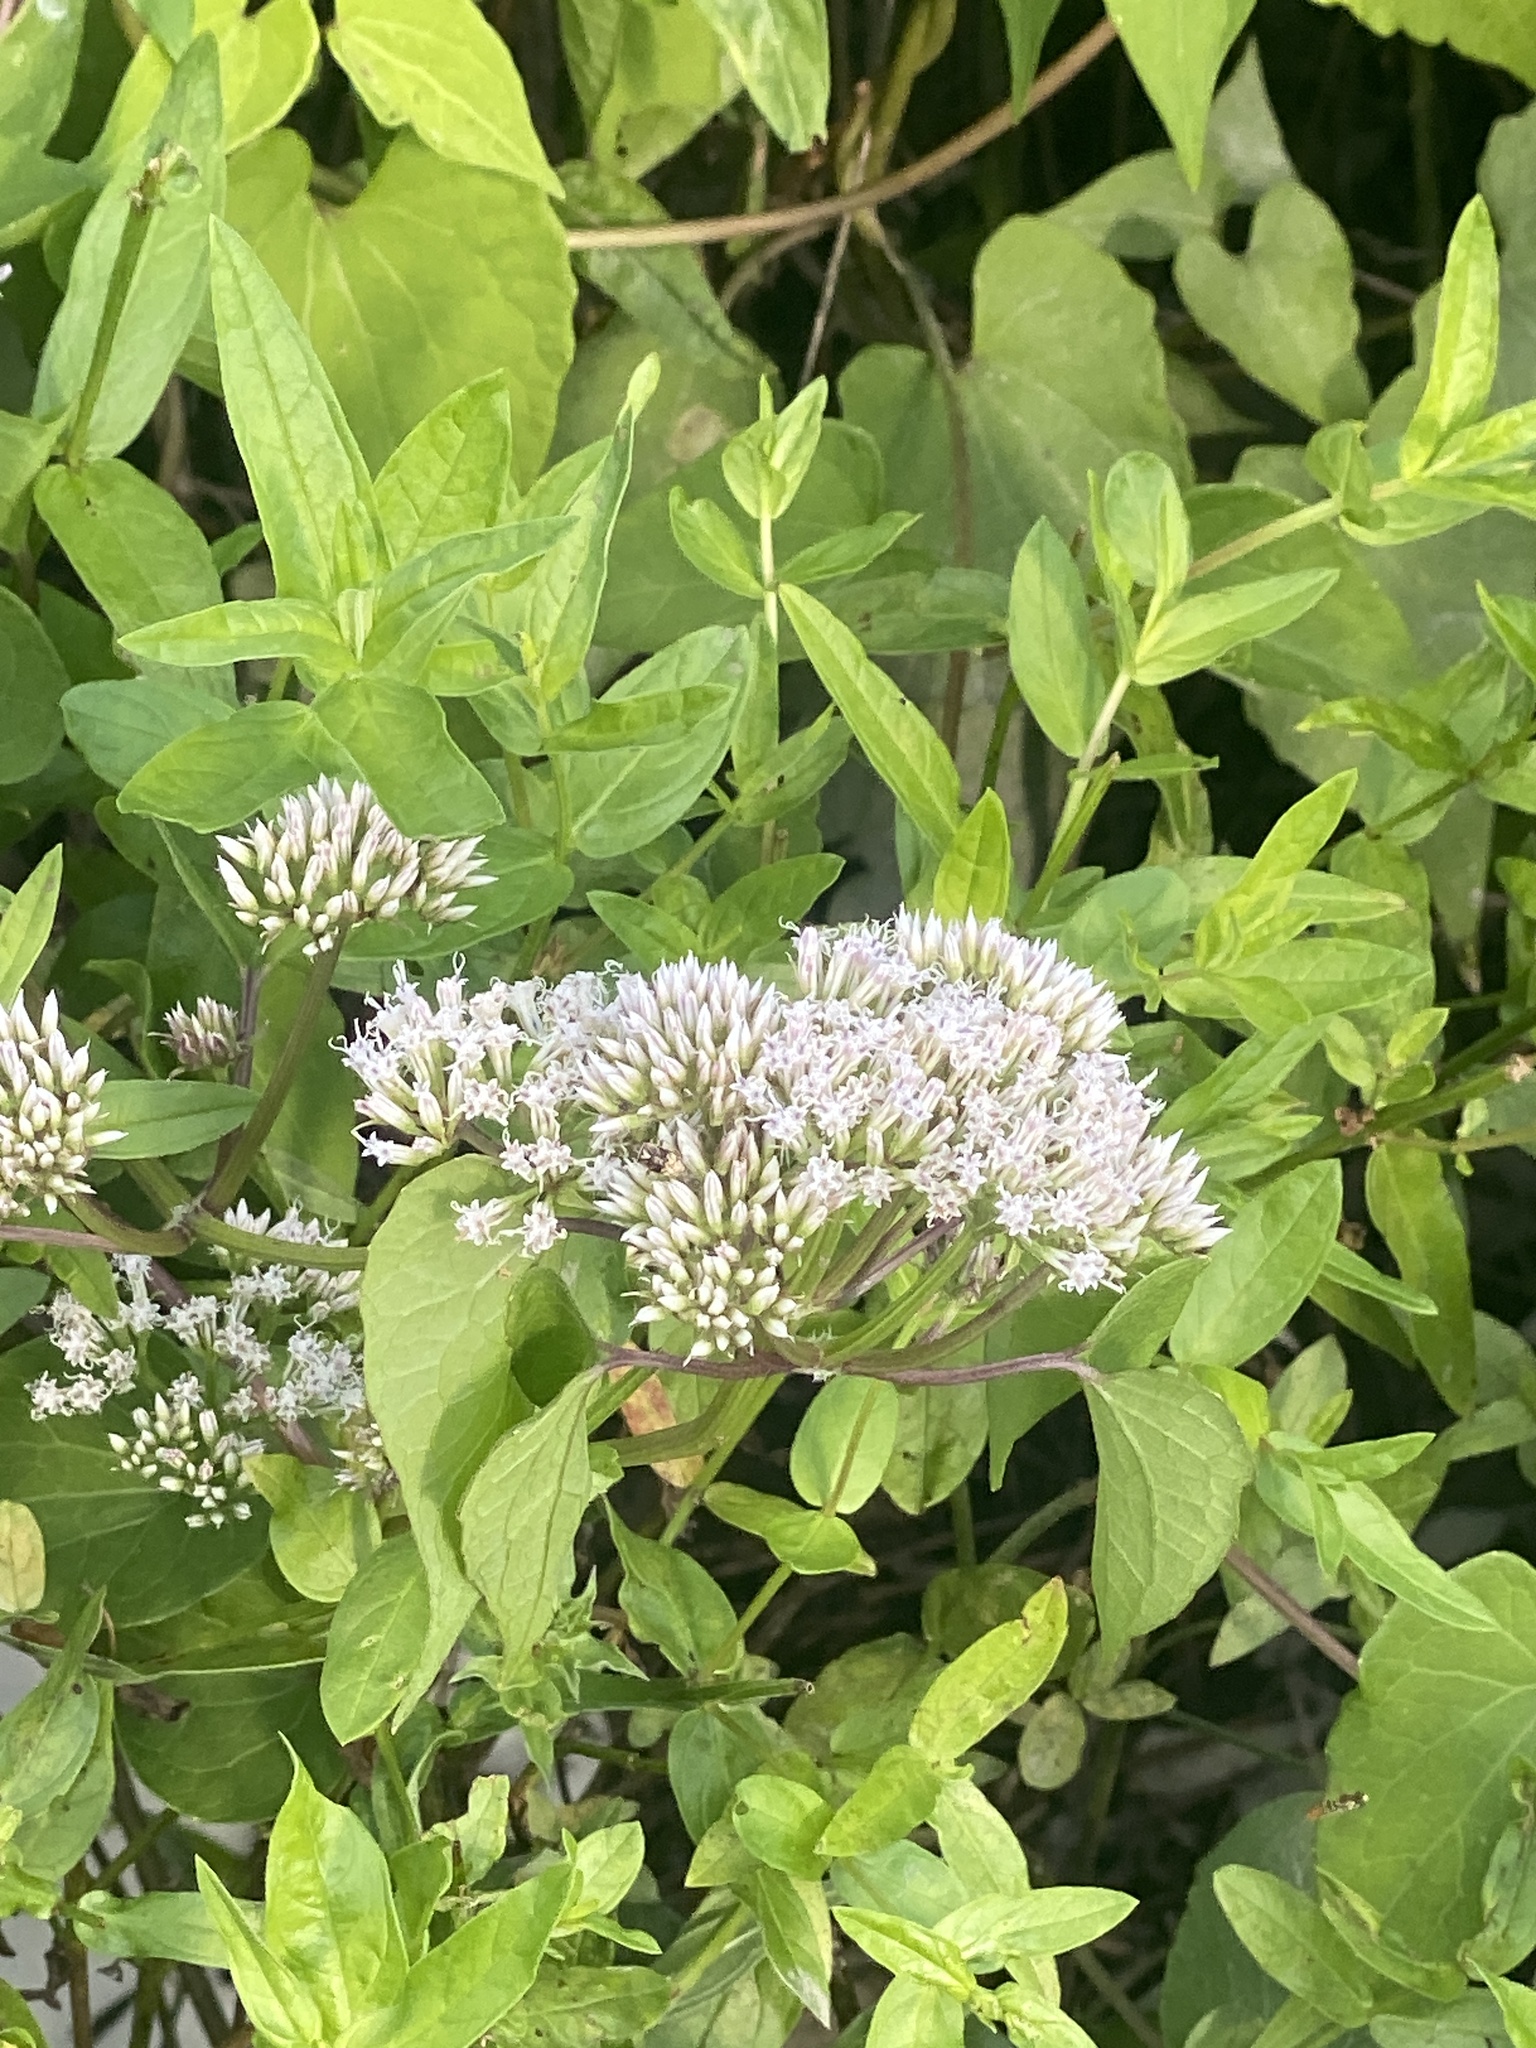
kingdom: Plantae
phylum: Tracheophyta
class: Magnoliopsida
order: Asterales
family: Asteraceae
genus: Mikania
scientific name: Mikania scandens
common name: Climbing hempvine
